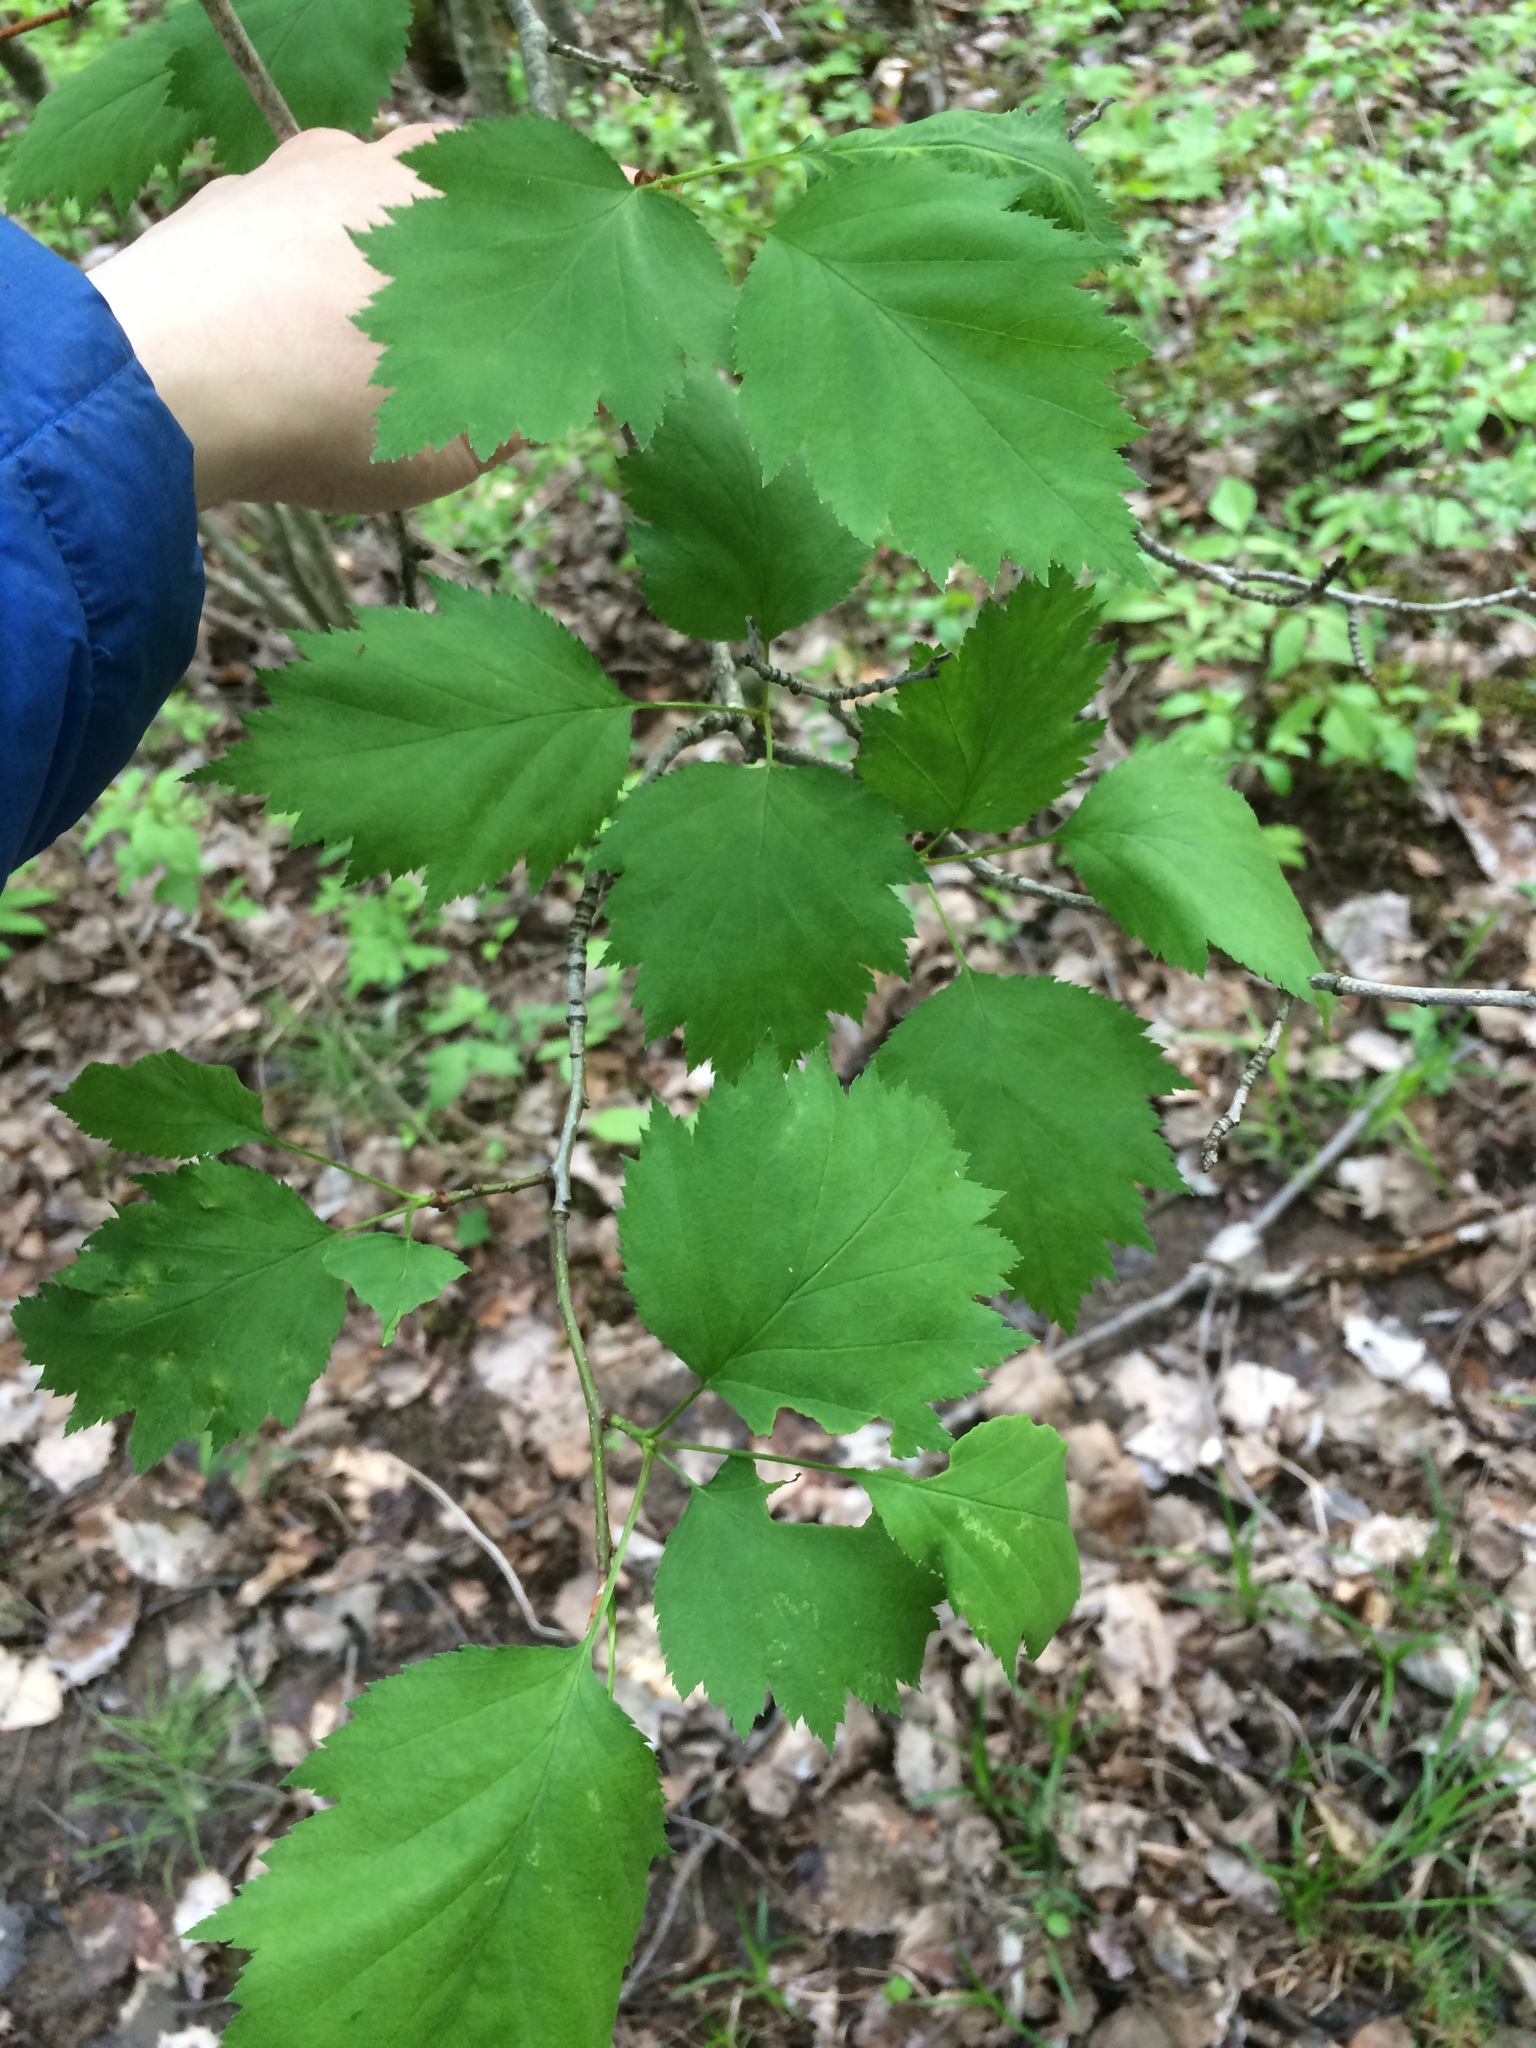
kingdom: Plantae
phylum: Tracheophyta
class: Magnoliopsida
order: Rosales
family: Rosaceae
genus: Crataegus
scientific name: Crataegus flabellata
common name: Bosc's hawthorn
